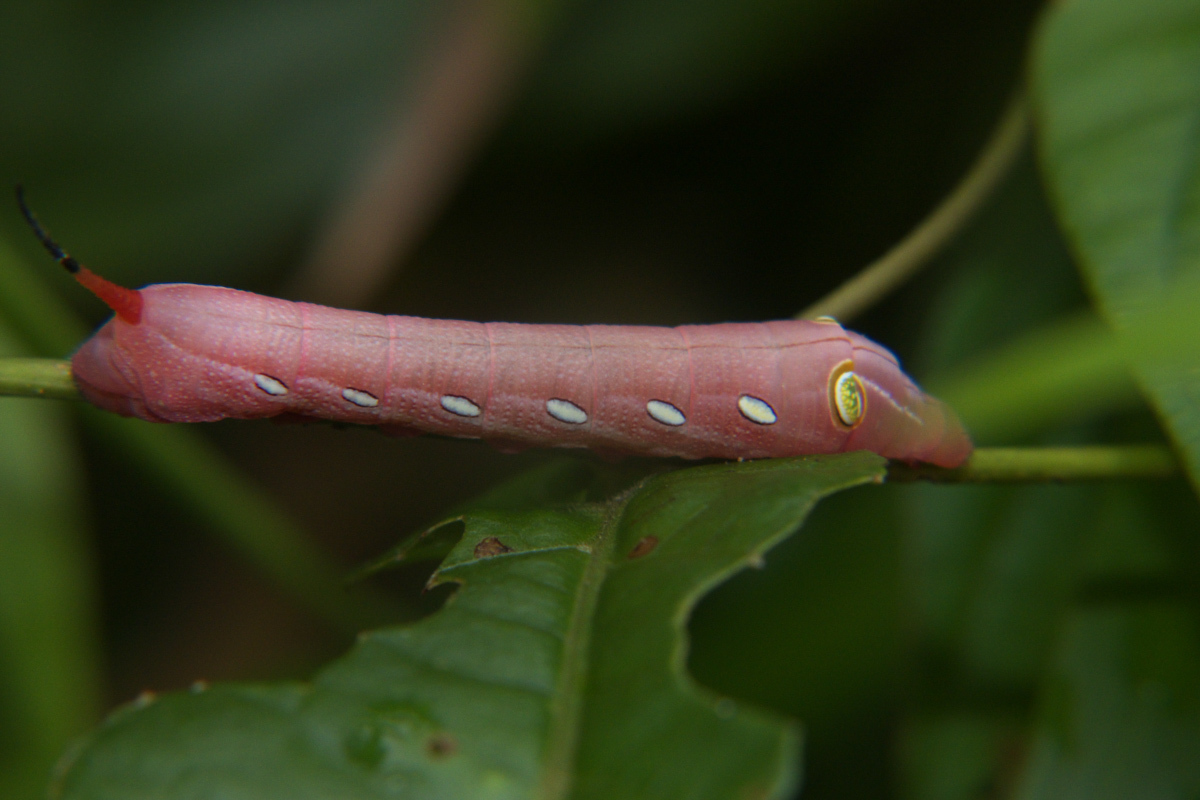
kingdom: Animalia
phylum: Arthropoda
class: Insecta
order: Lepidoptera
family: Sphingidae
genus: Pergesa
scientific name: Pergesa acteus
